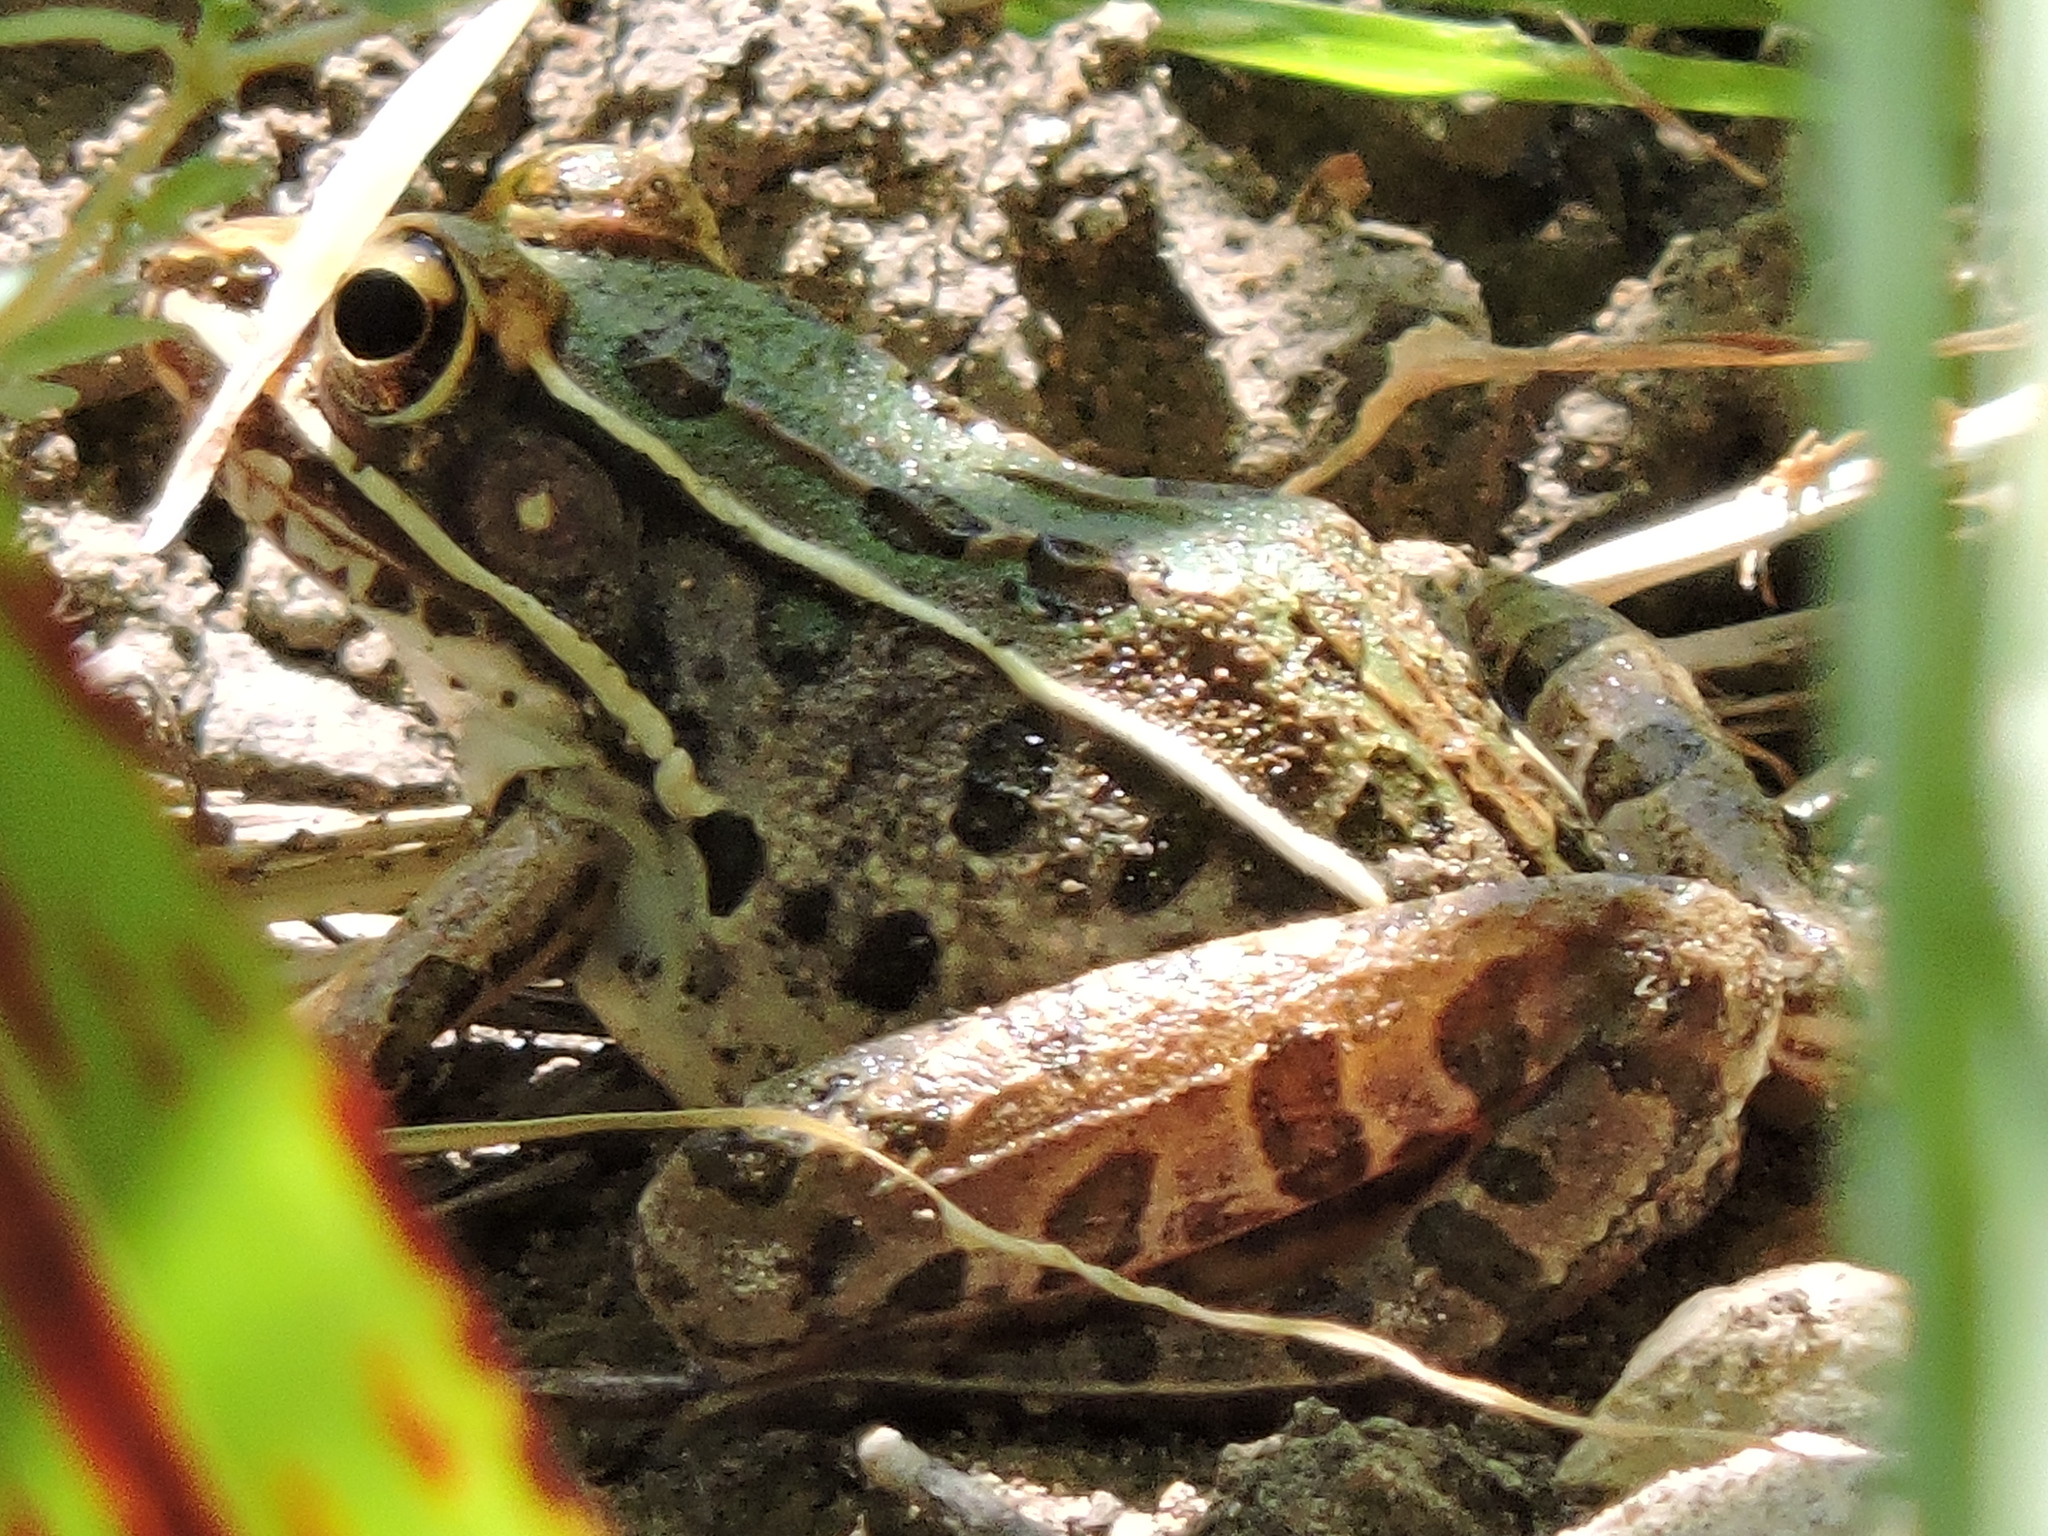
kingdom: Animalia
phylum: Chordata
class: Amphibia
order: Anura
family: Ranidae
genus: Lithobates
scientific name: Lithobates sphenocephalus
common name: Southern leopard frog
